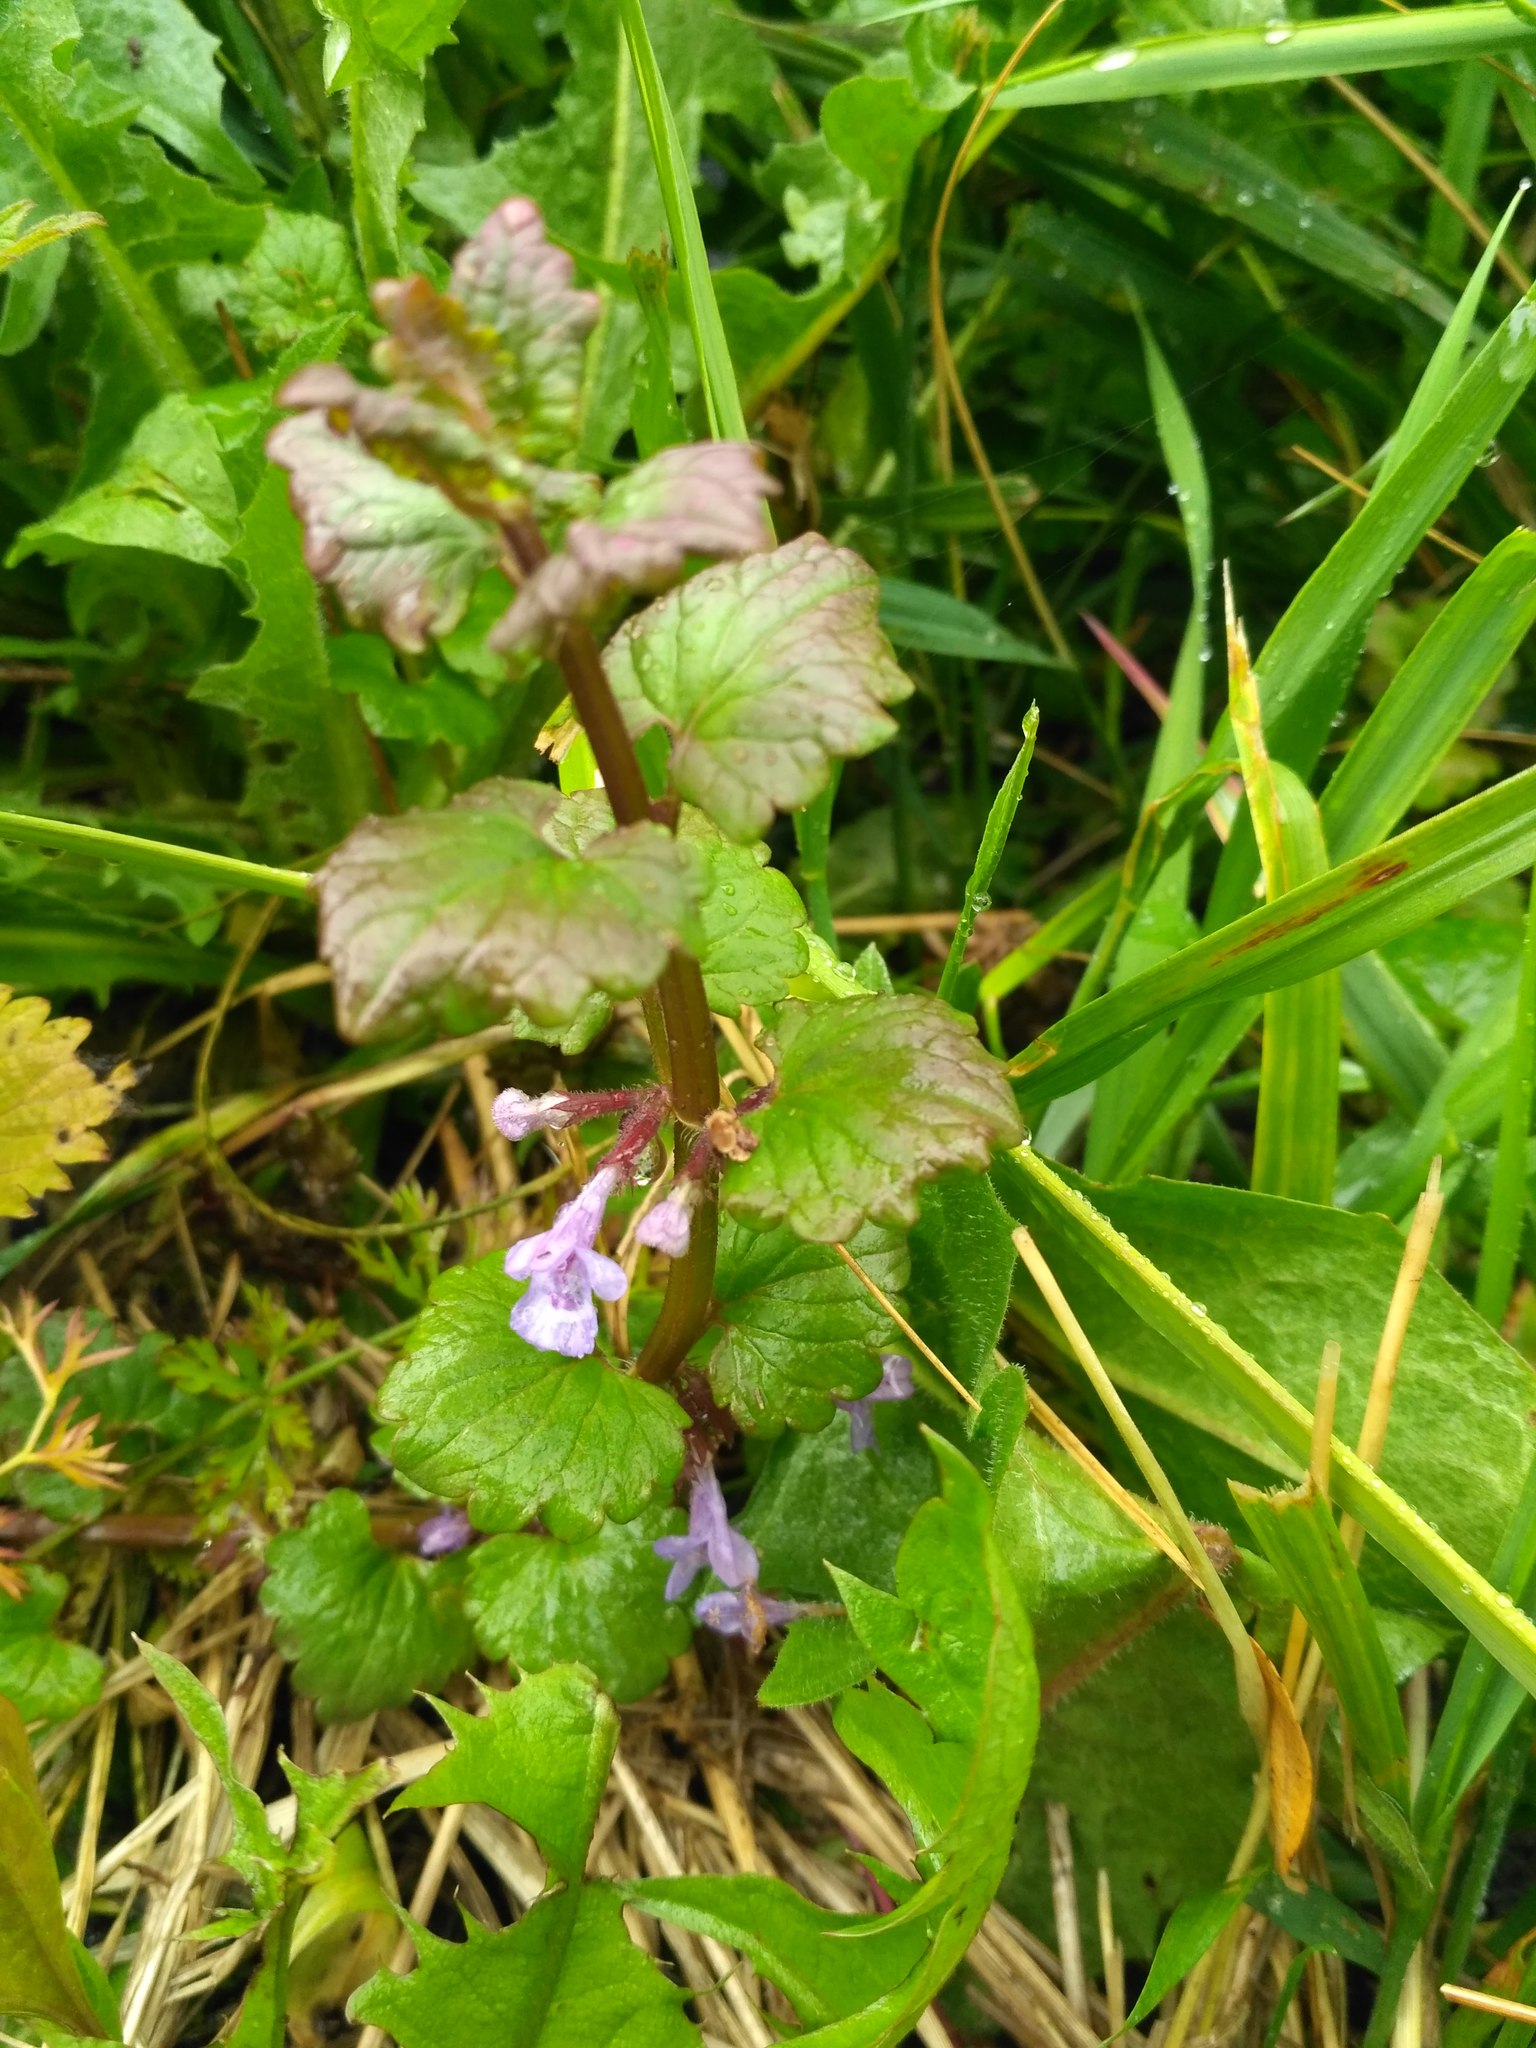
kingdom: Plantae
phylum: Tracheophyta
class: Magnoliopsida
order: Lamiales
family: Lamiaceae
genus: Glechoma
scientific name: Glechoma hederacea
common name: Ground ivy
